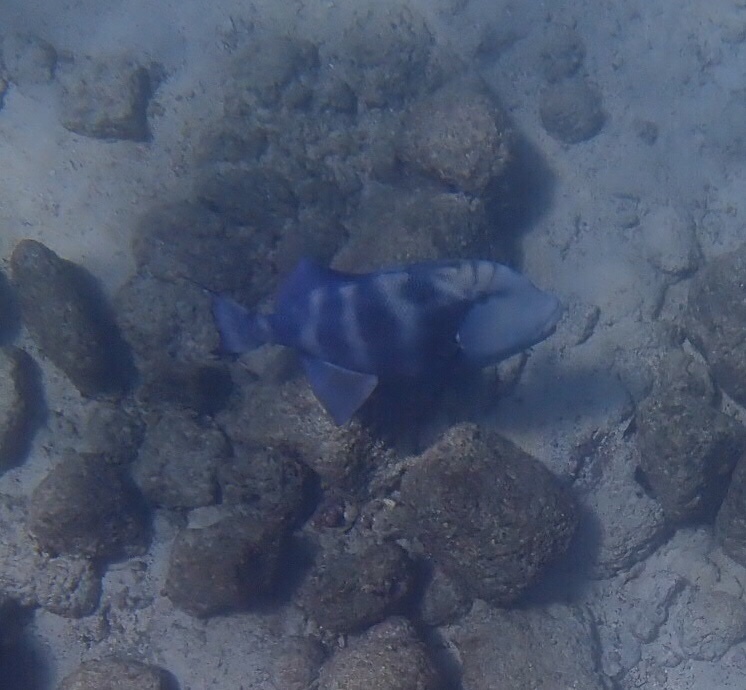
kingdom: Animalia
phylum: Chordata
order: Tetraodontiformes
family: Balistidae
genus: Pseudobalistes
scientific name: Pseudobalistes naufragium
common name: Blunthead triggerfish
